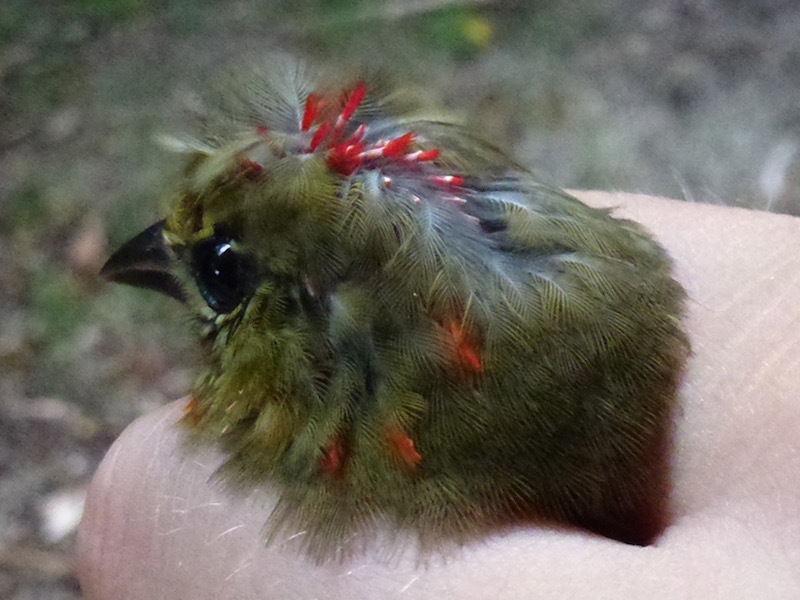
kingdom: Animalia
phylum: Chordata
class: Aves
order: Passeriformes
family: Ploceidae
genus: Foudia
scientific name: Foudia rubra
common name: Mauritius fody
